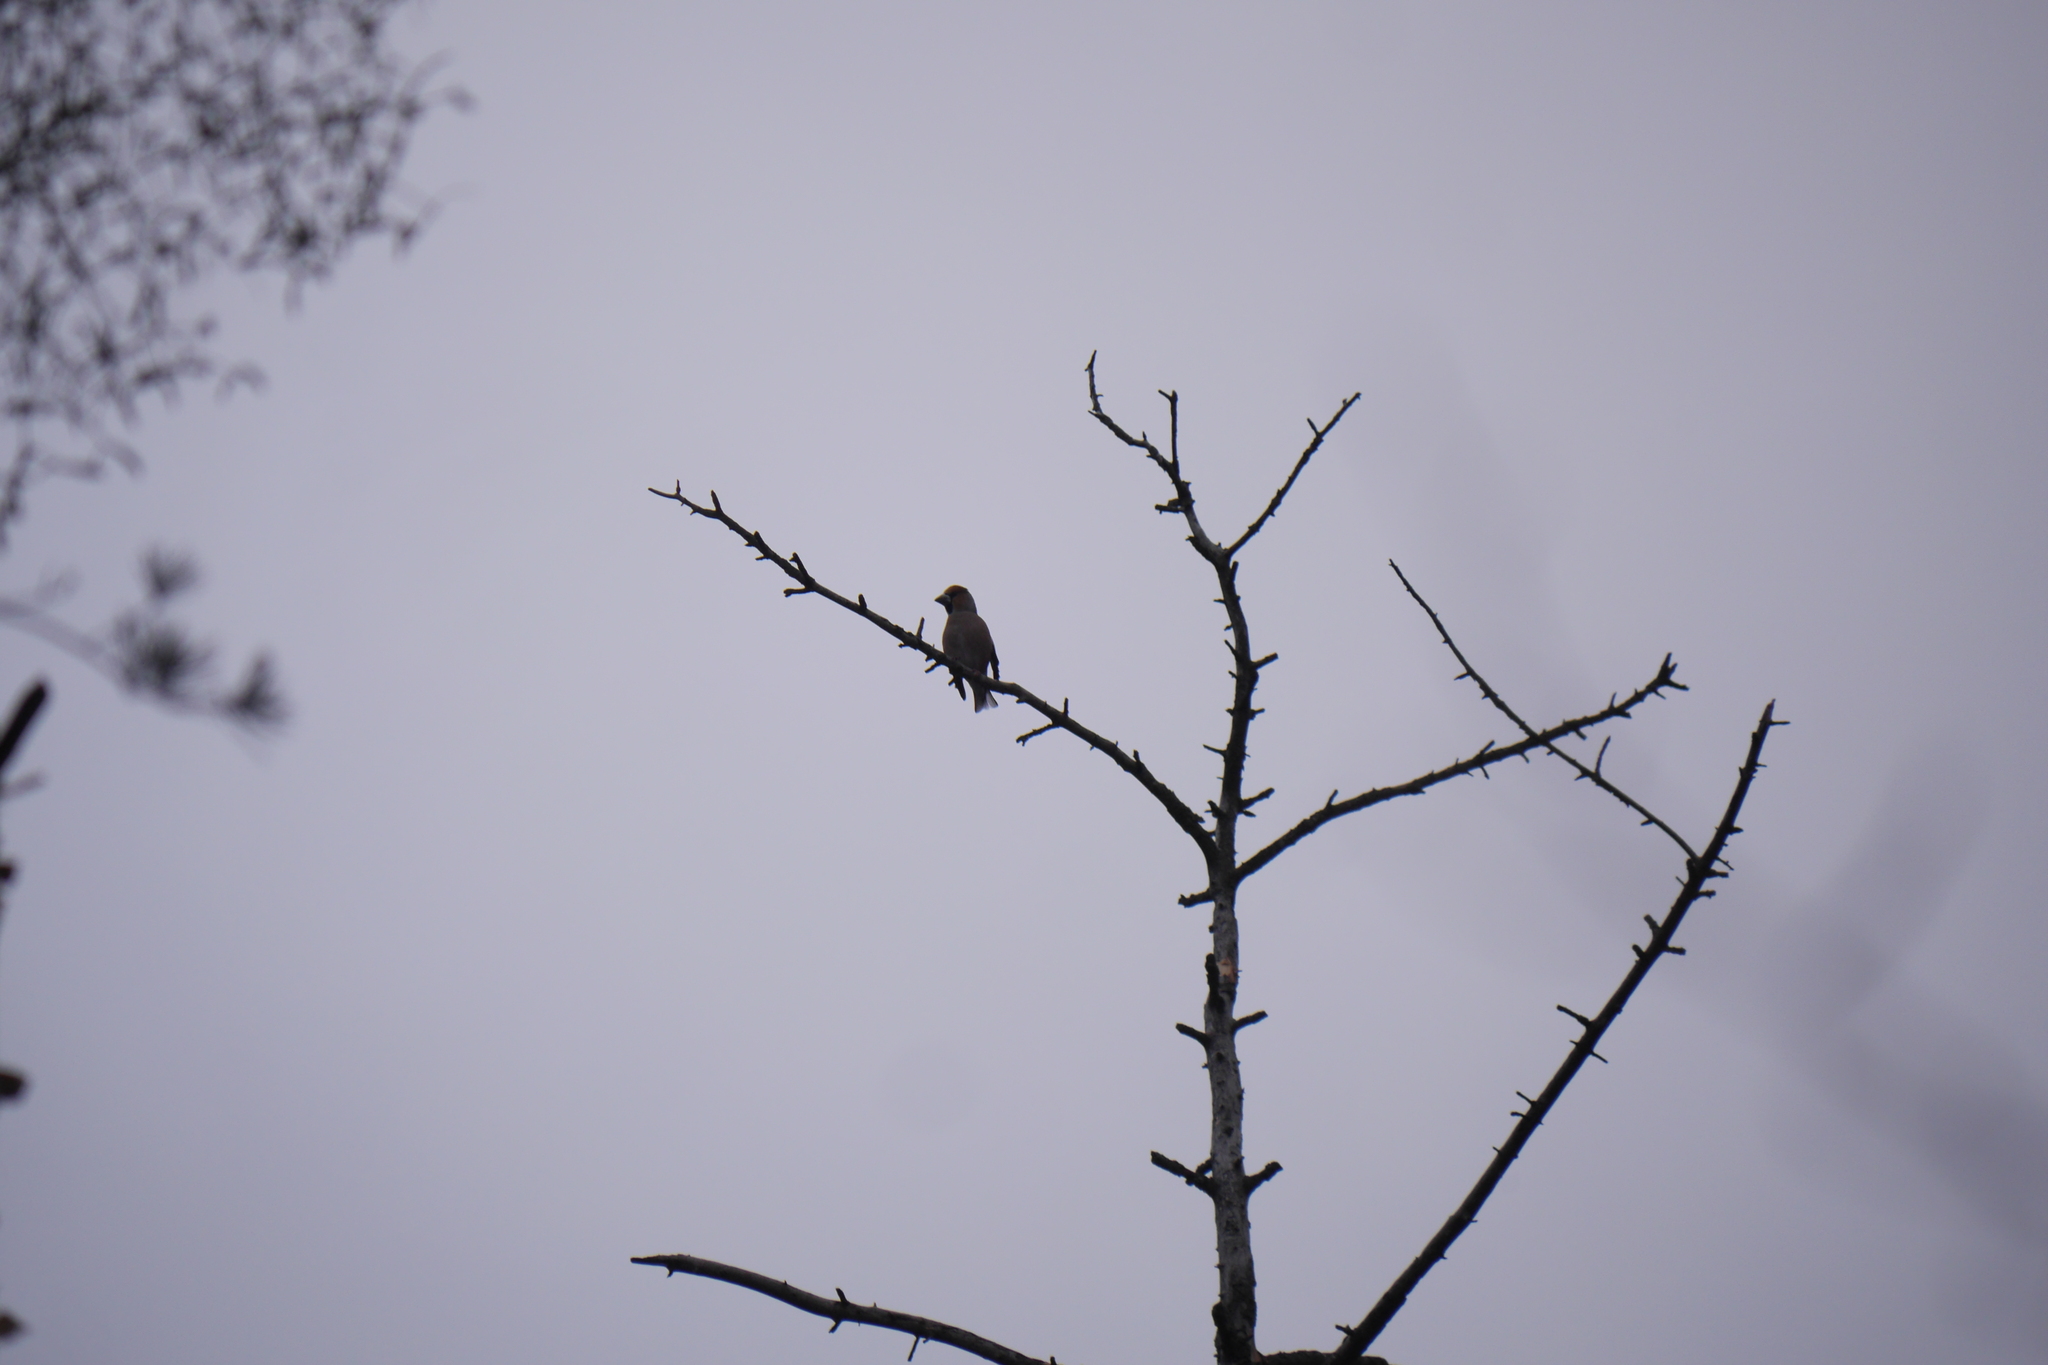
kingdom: Animalia
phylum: Chordata
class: Aves
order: Passeriformes
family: Fringillidae
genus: Coccothraustes
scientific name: Coccothraustes coccothraustes
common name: Hawfinch
